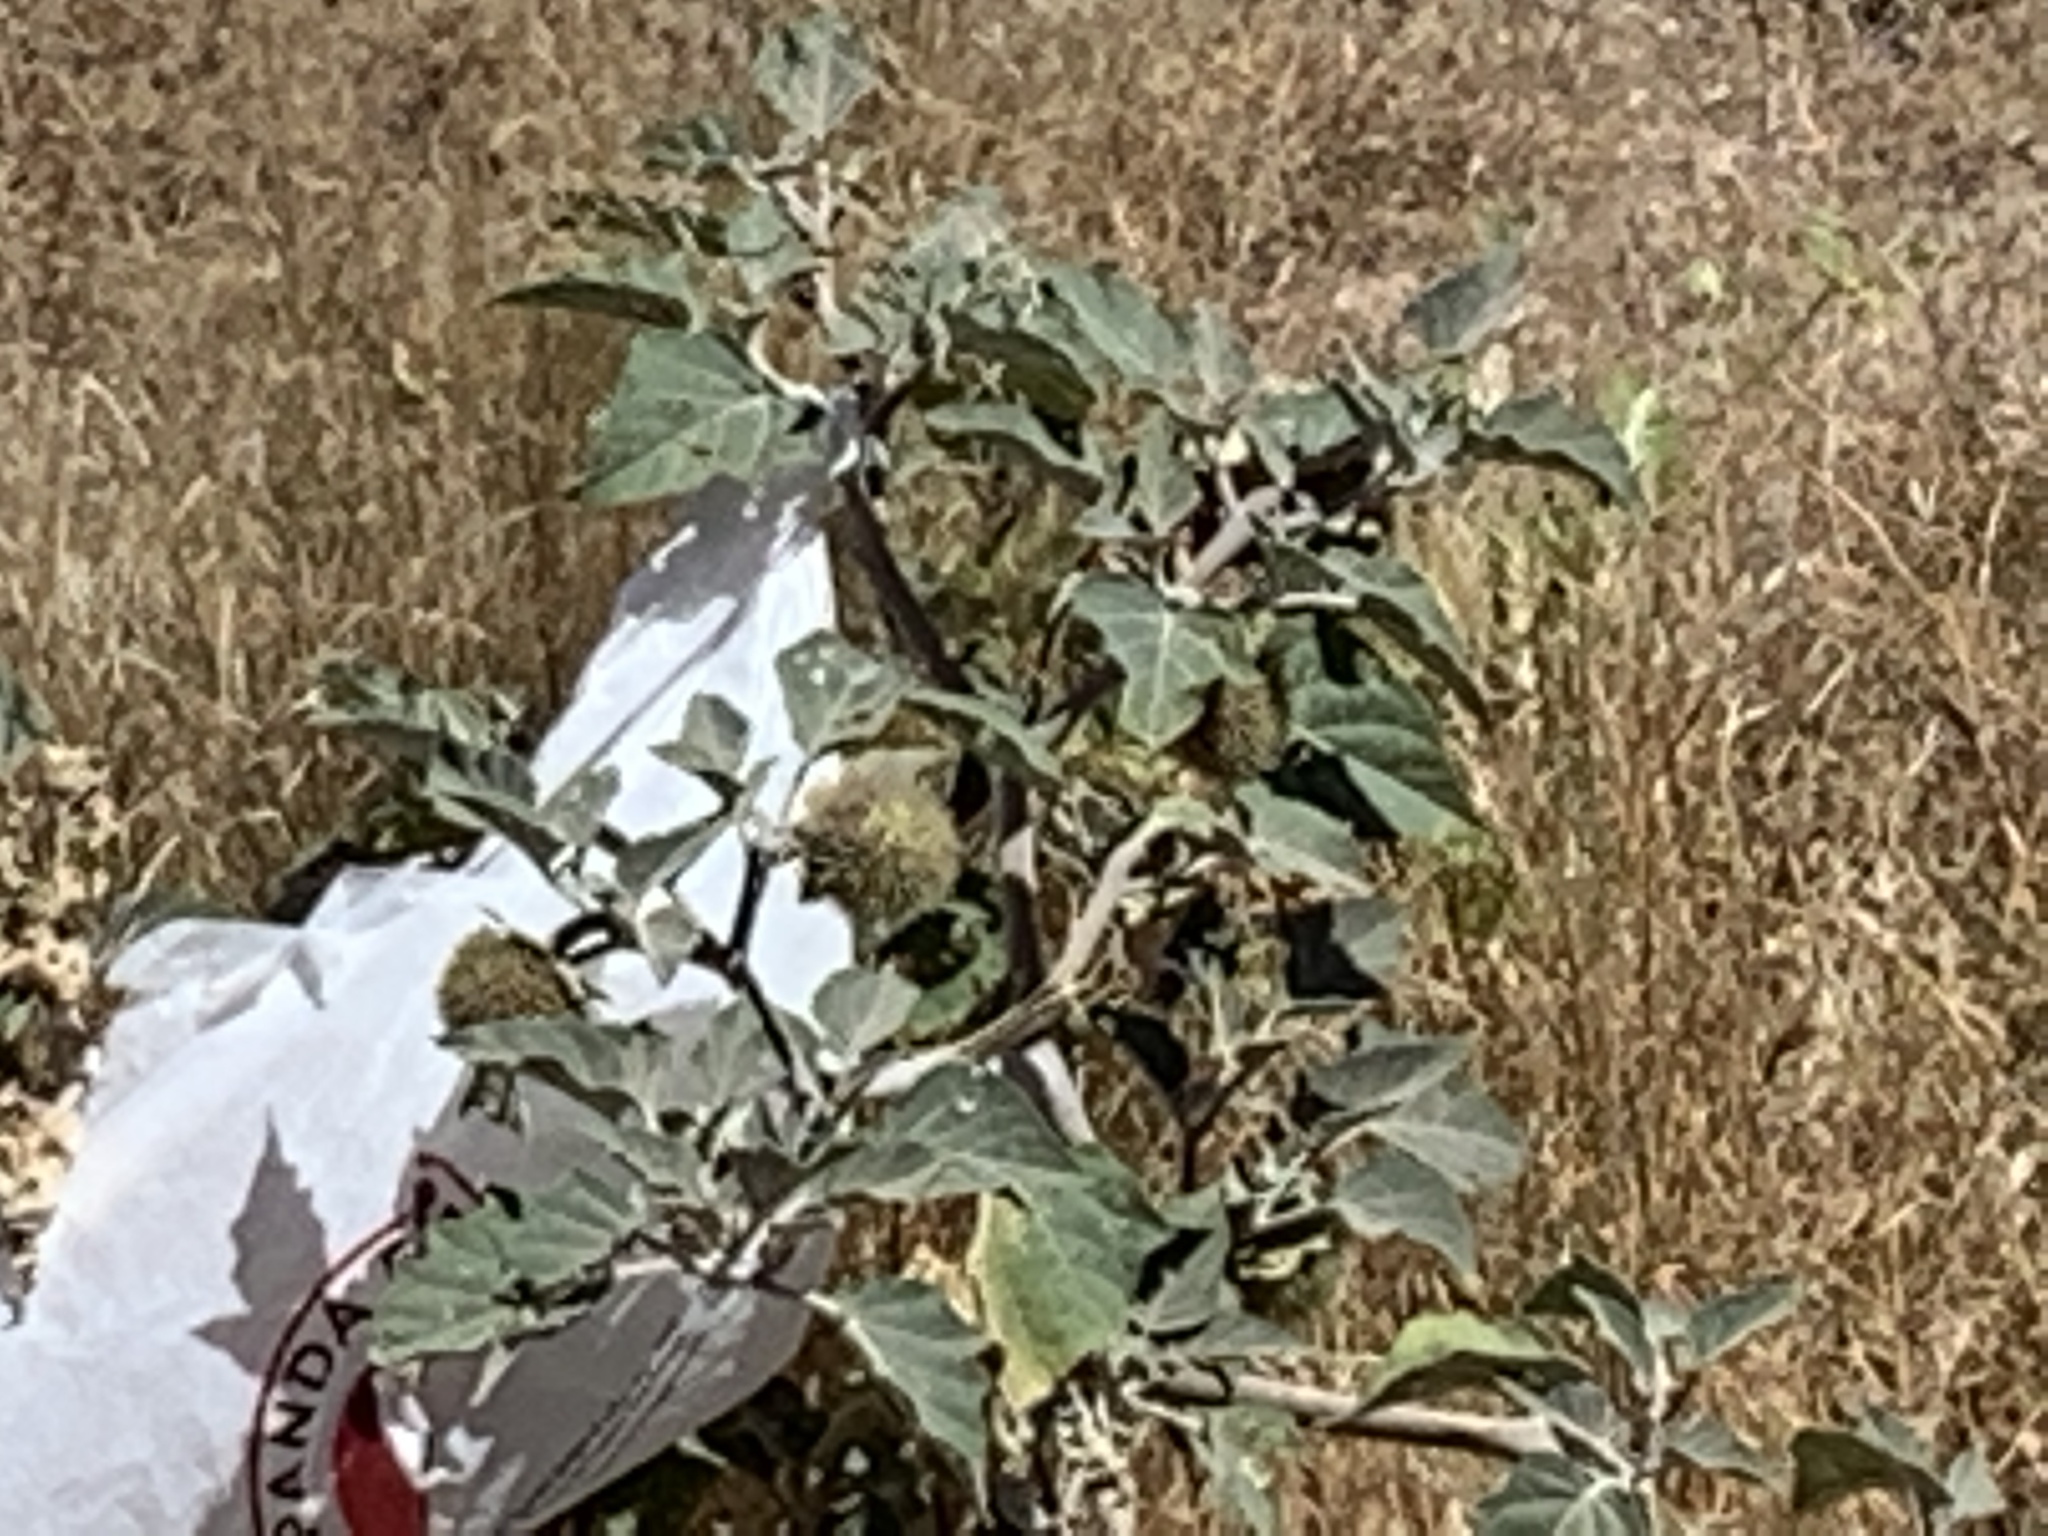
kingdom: Plantae
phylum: Tracheophyta
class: Magnoliopsida
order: Solanales
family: Solanaceae
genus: Datura
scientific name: Datura wrightii
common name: Sacred thorn-apple
